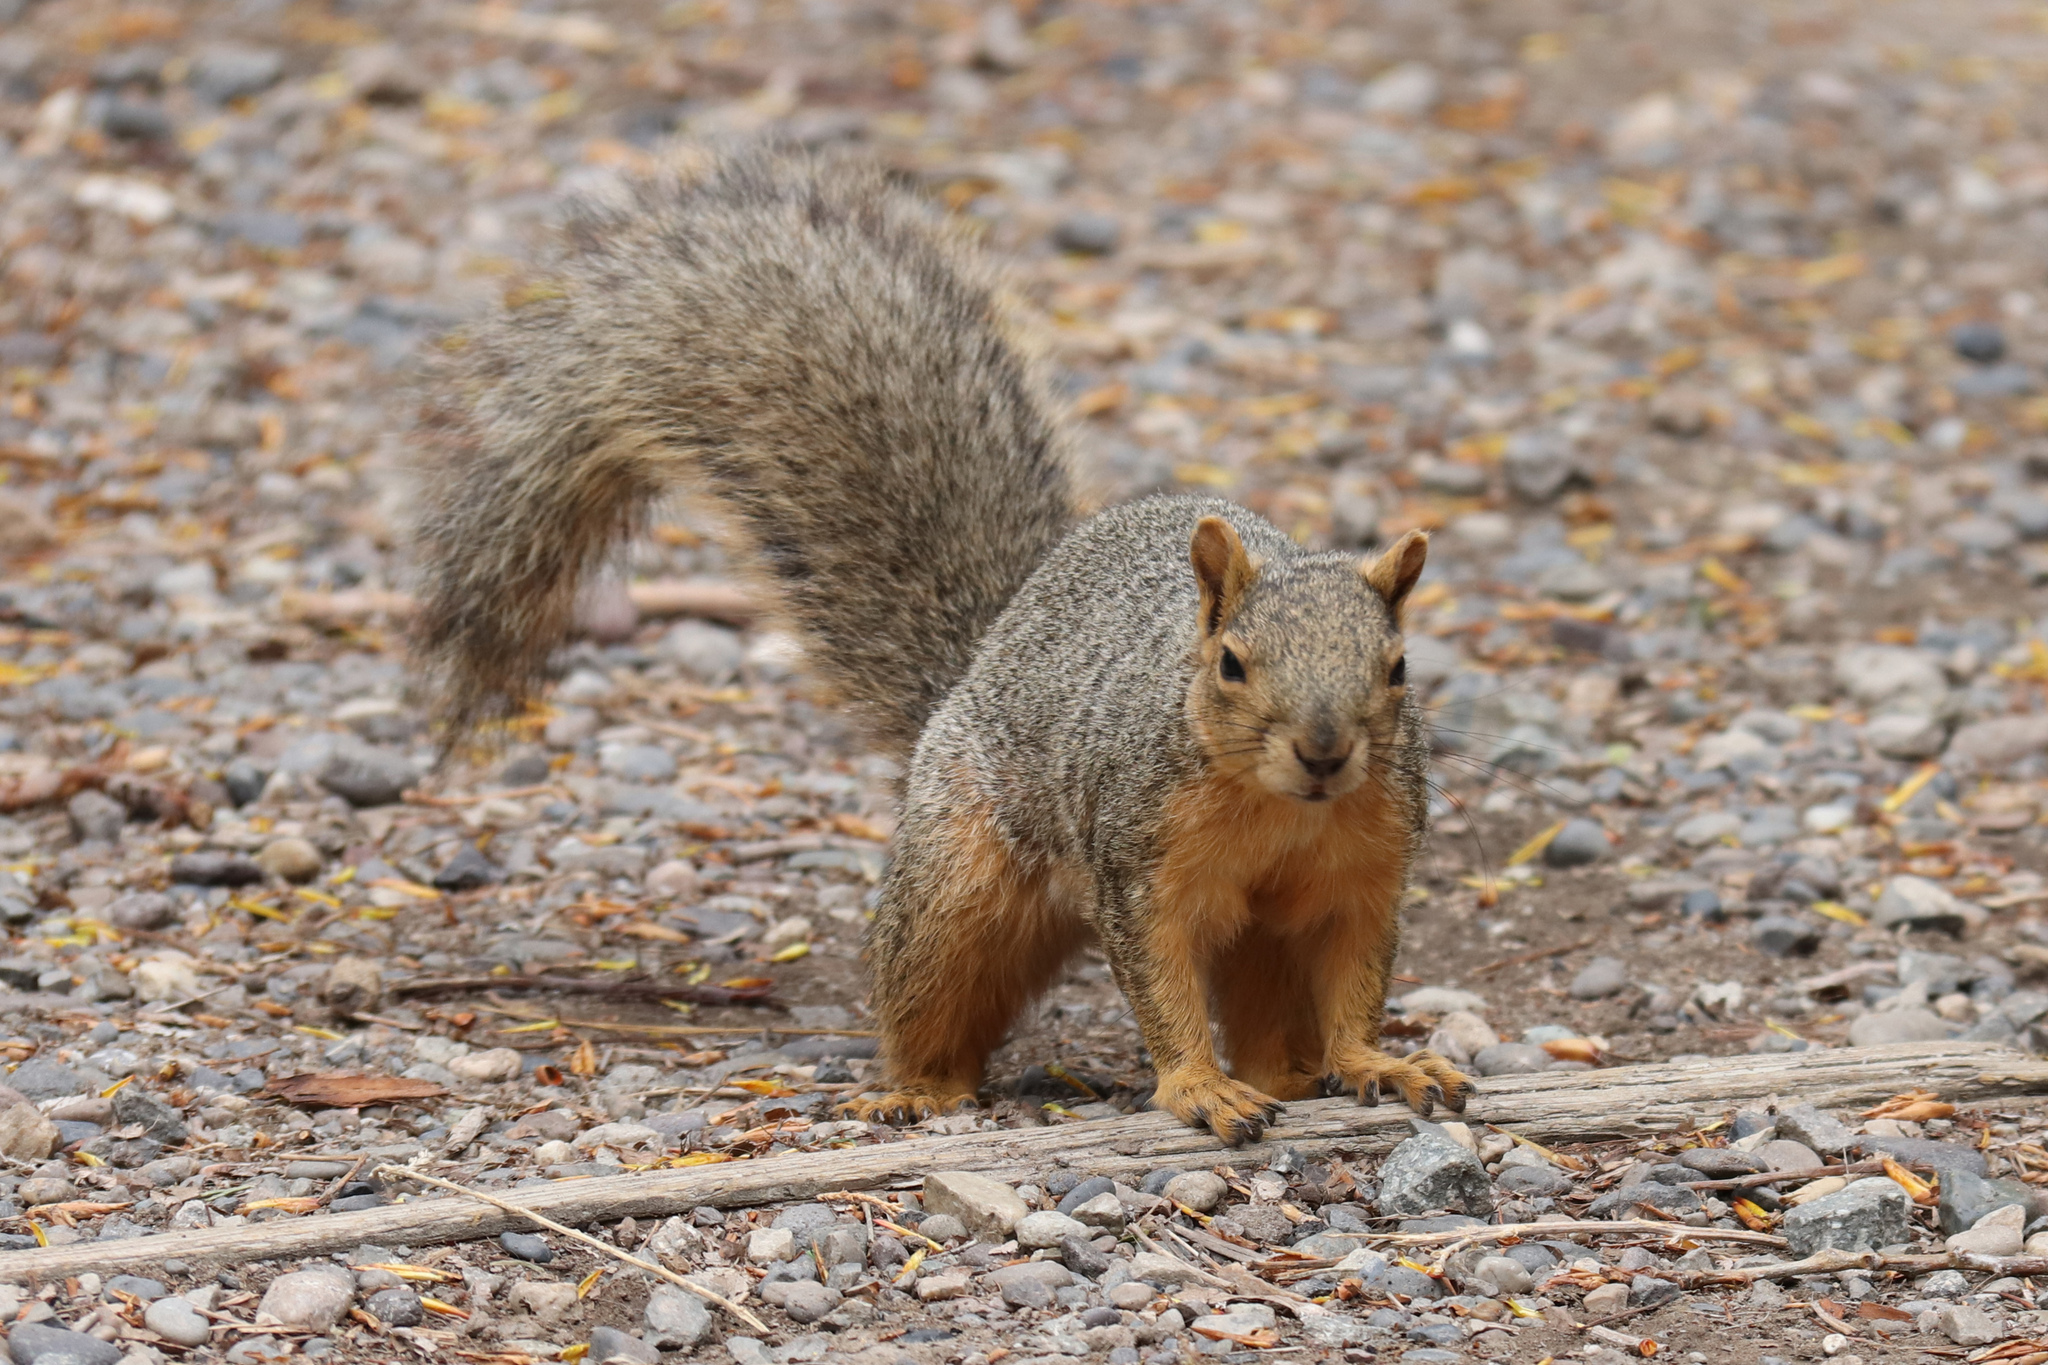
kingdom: Animalia
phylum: Chordata
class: Mammalia
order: Rodentia
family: Sciuridae
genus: Sciurus
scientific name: Sciurus niger
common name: Fox squirrel
